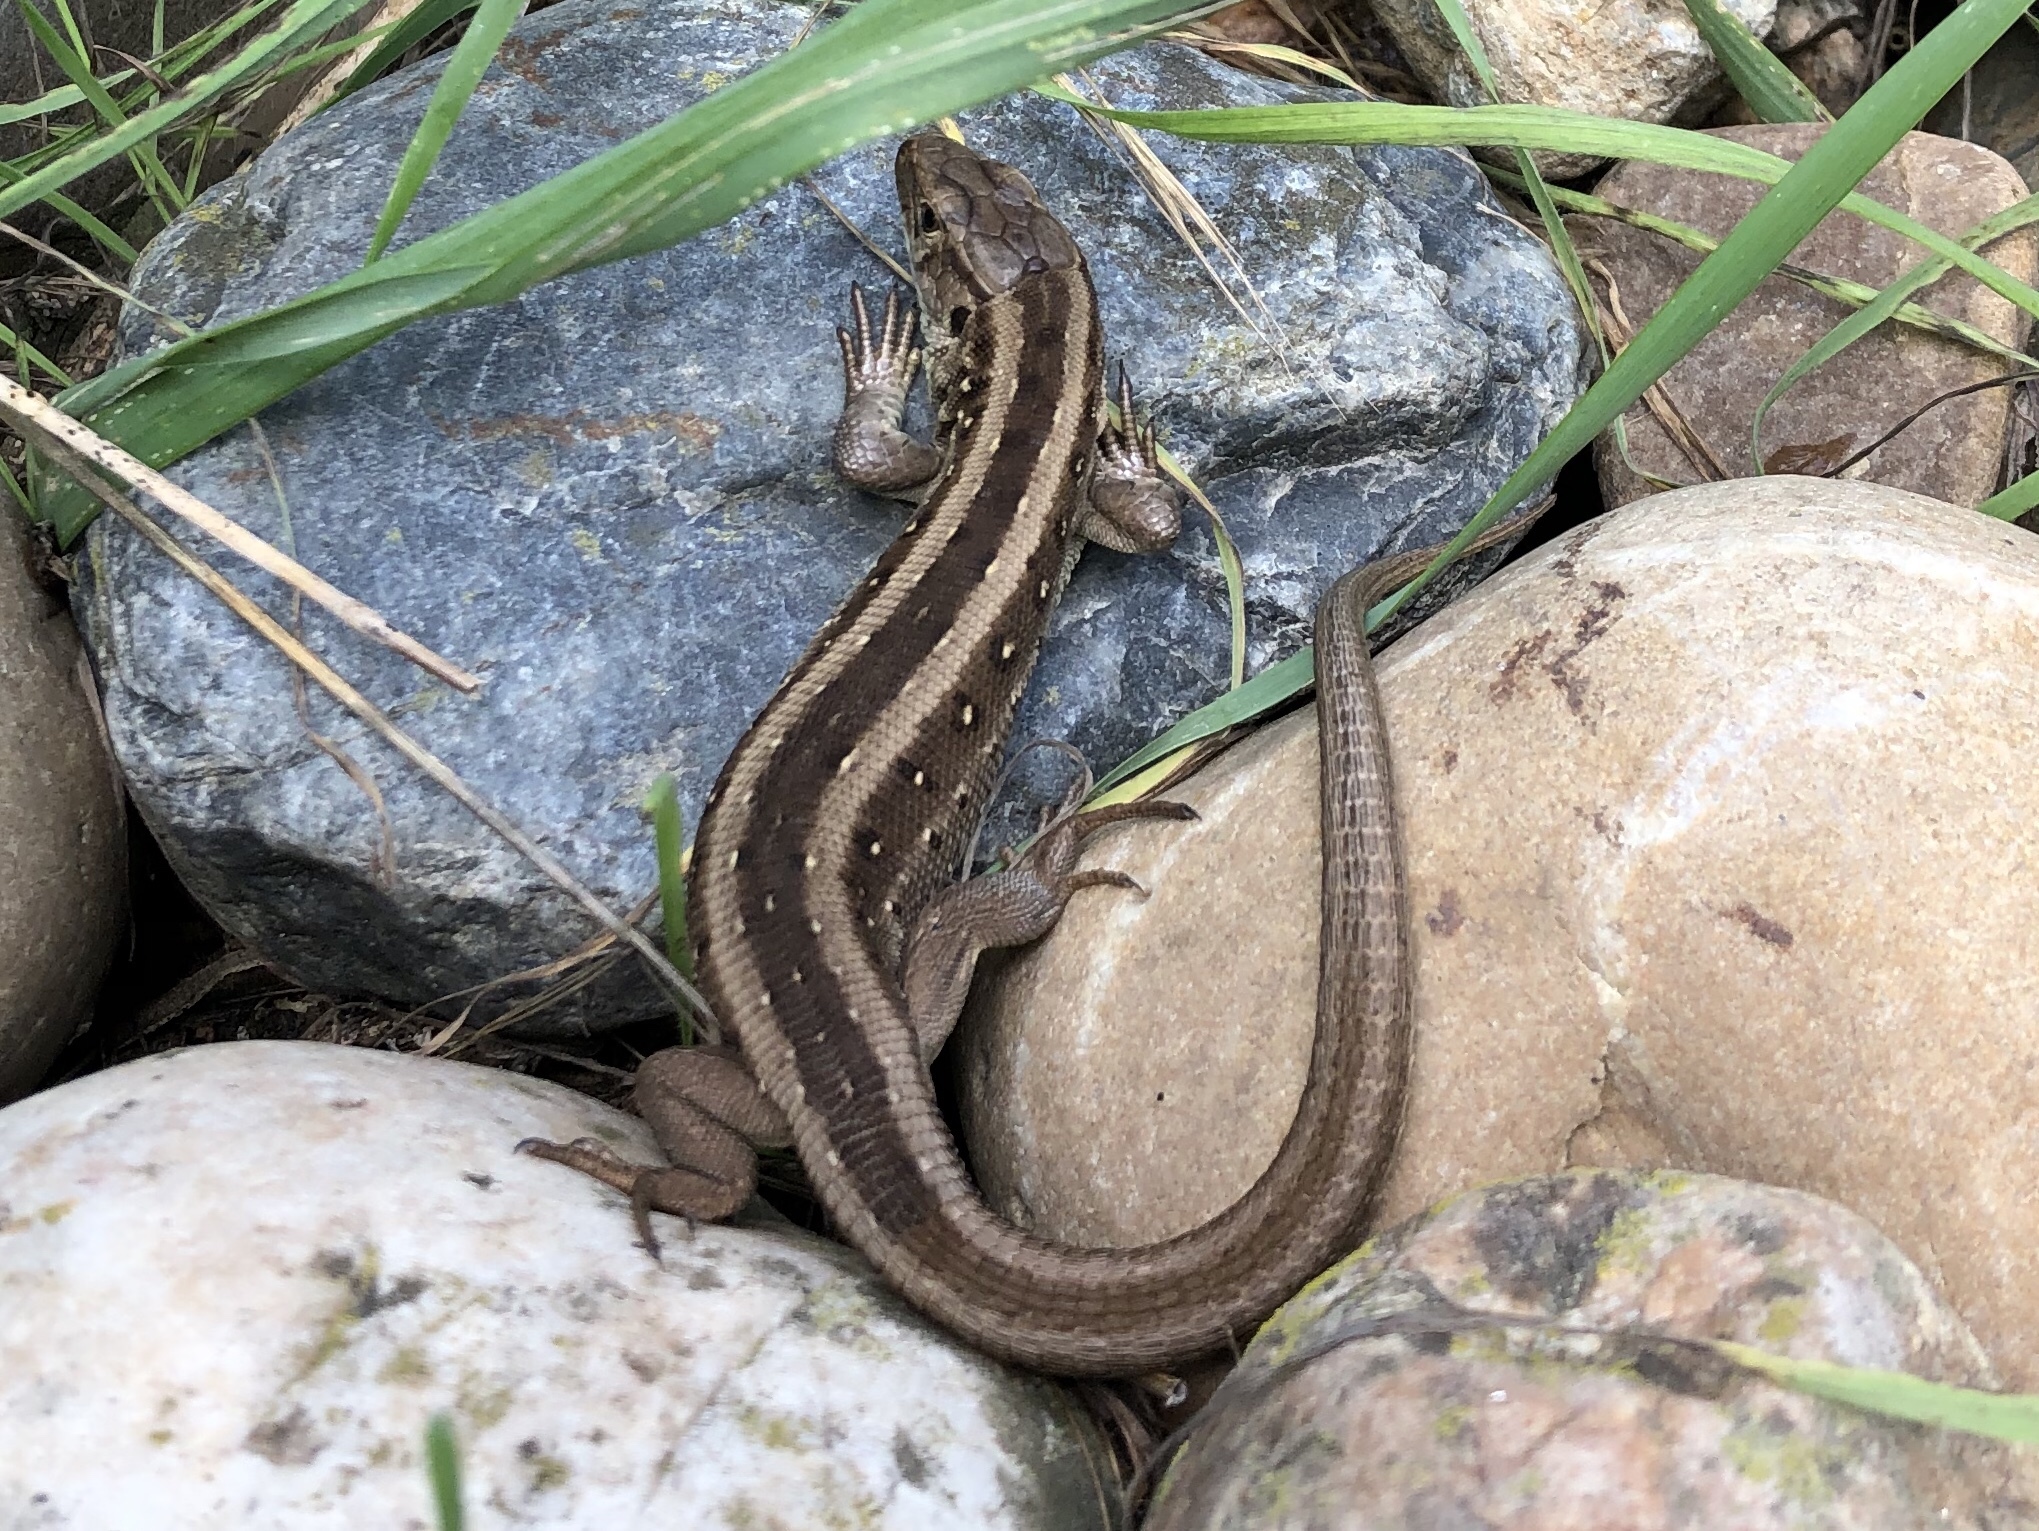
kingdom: Animalia
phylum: Chordata
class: Squamata
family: Lacertidae
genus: Lacerta
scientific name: Lacerta agilis
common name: Sand lizard
